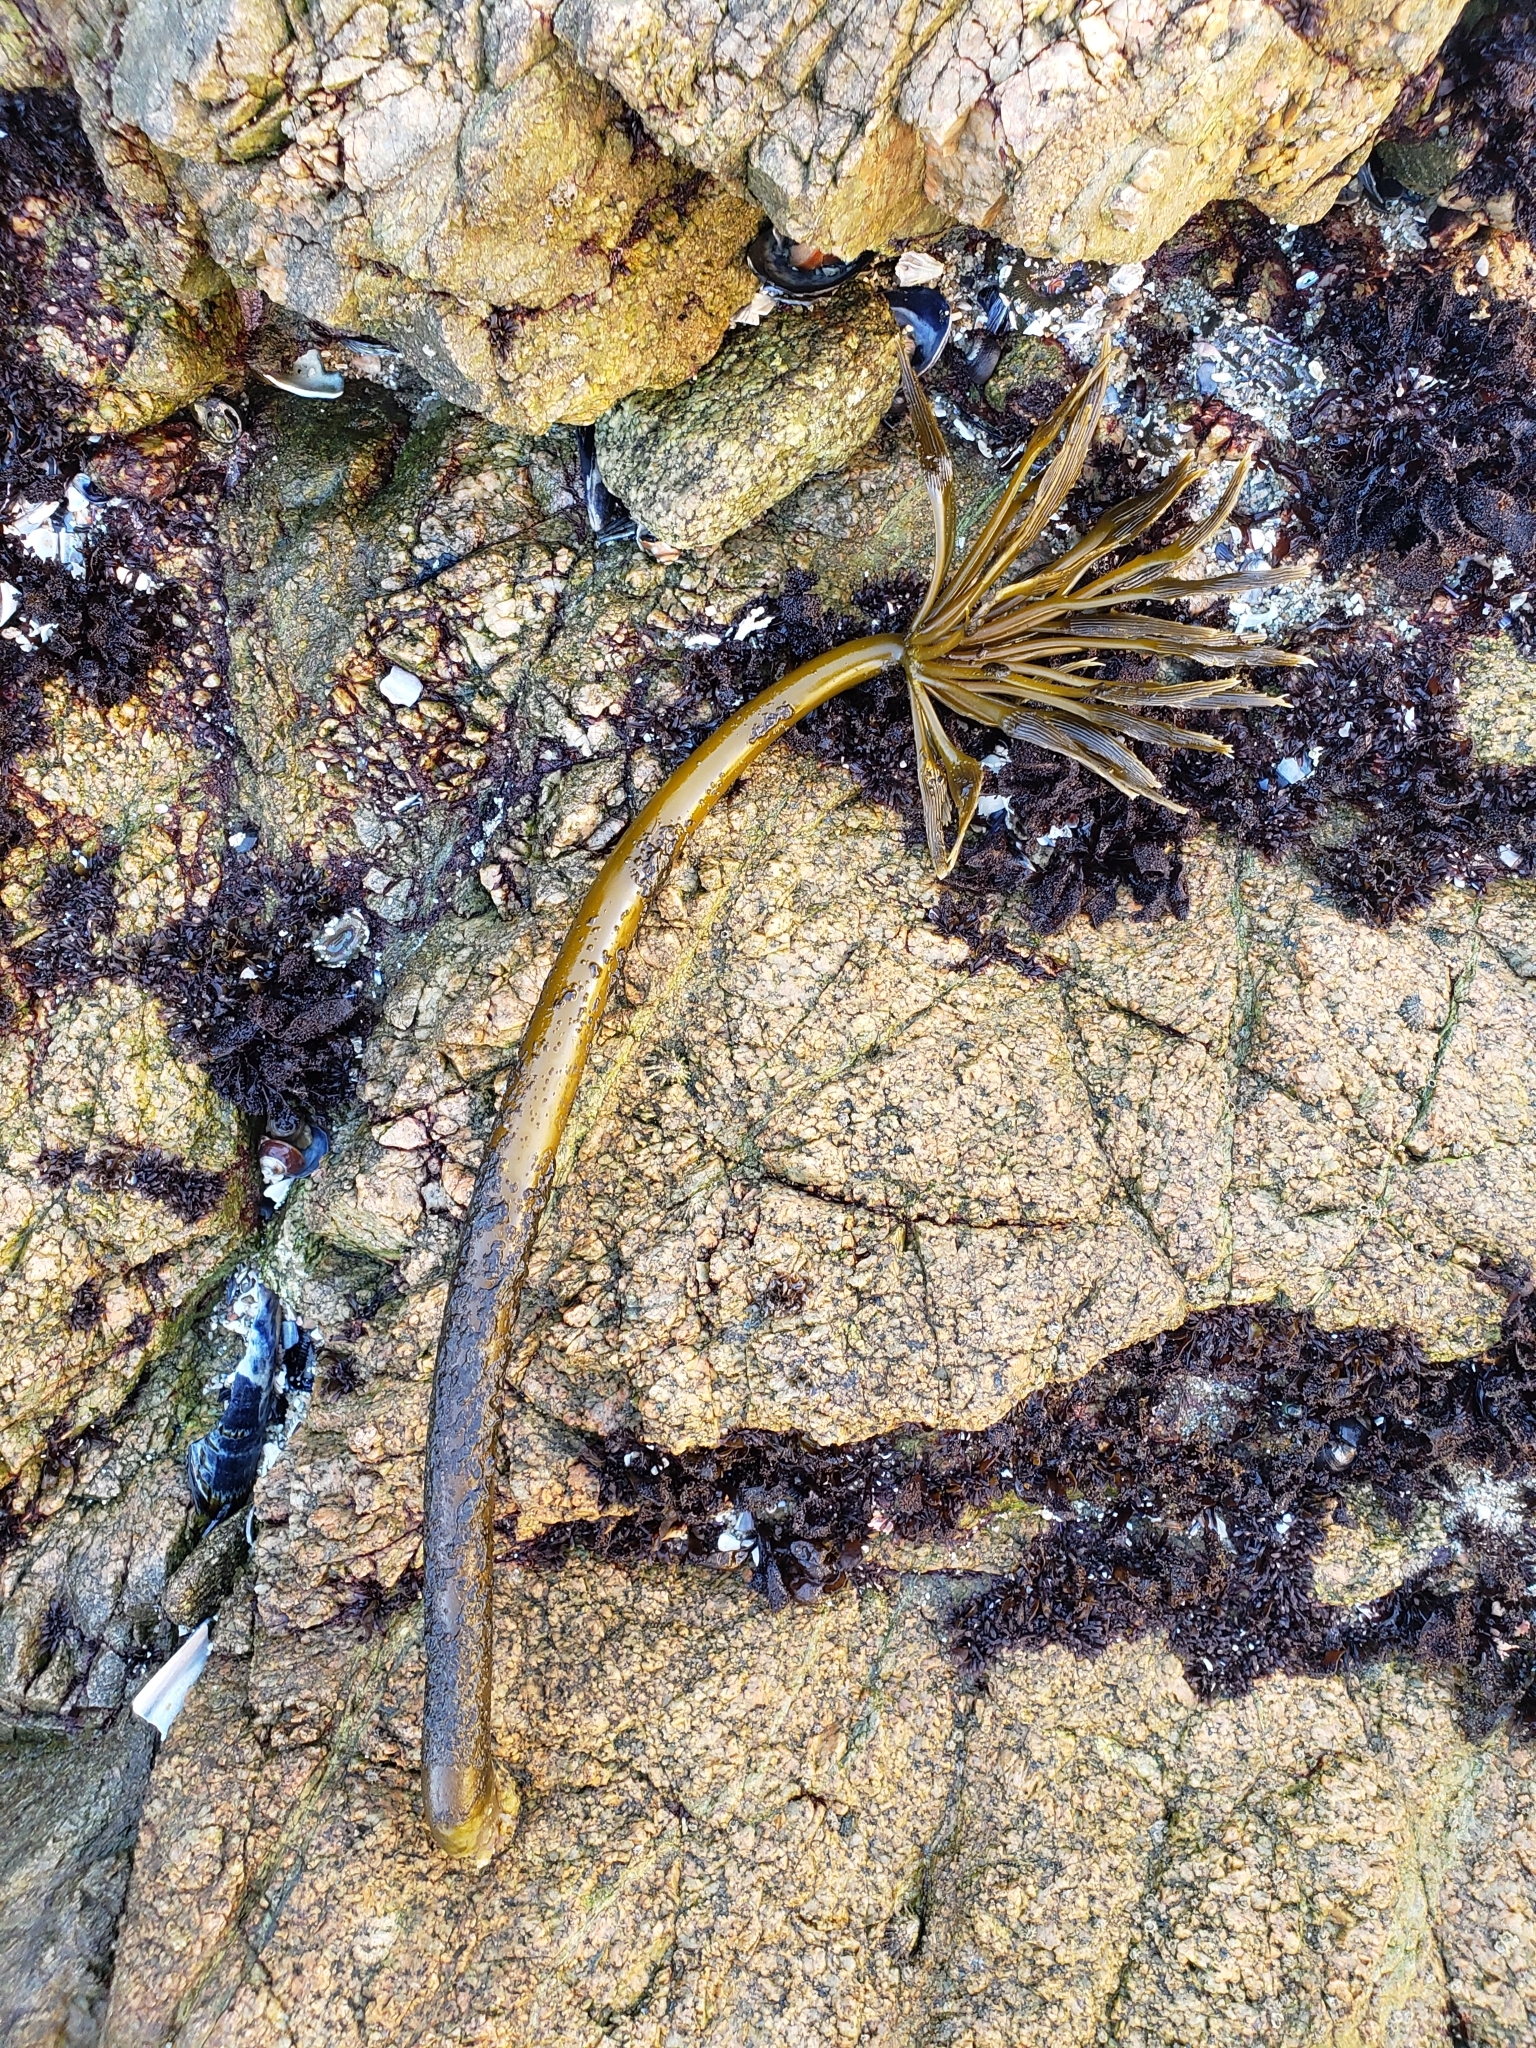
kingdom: Chromista
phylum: Ochrophyta
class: Phaeophyceae
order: Laminariales
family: Laminariaceae
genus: Postelsia
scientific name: Postelsia palmiformis
